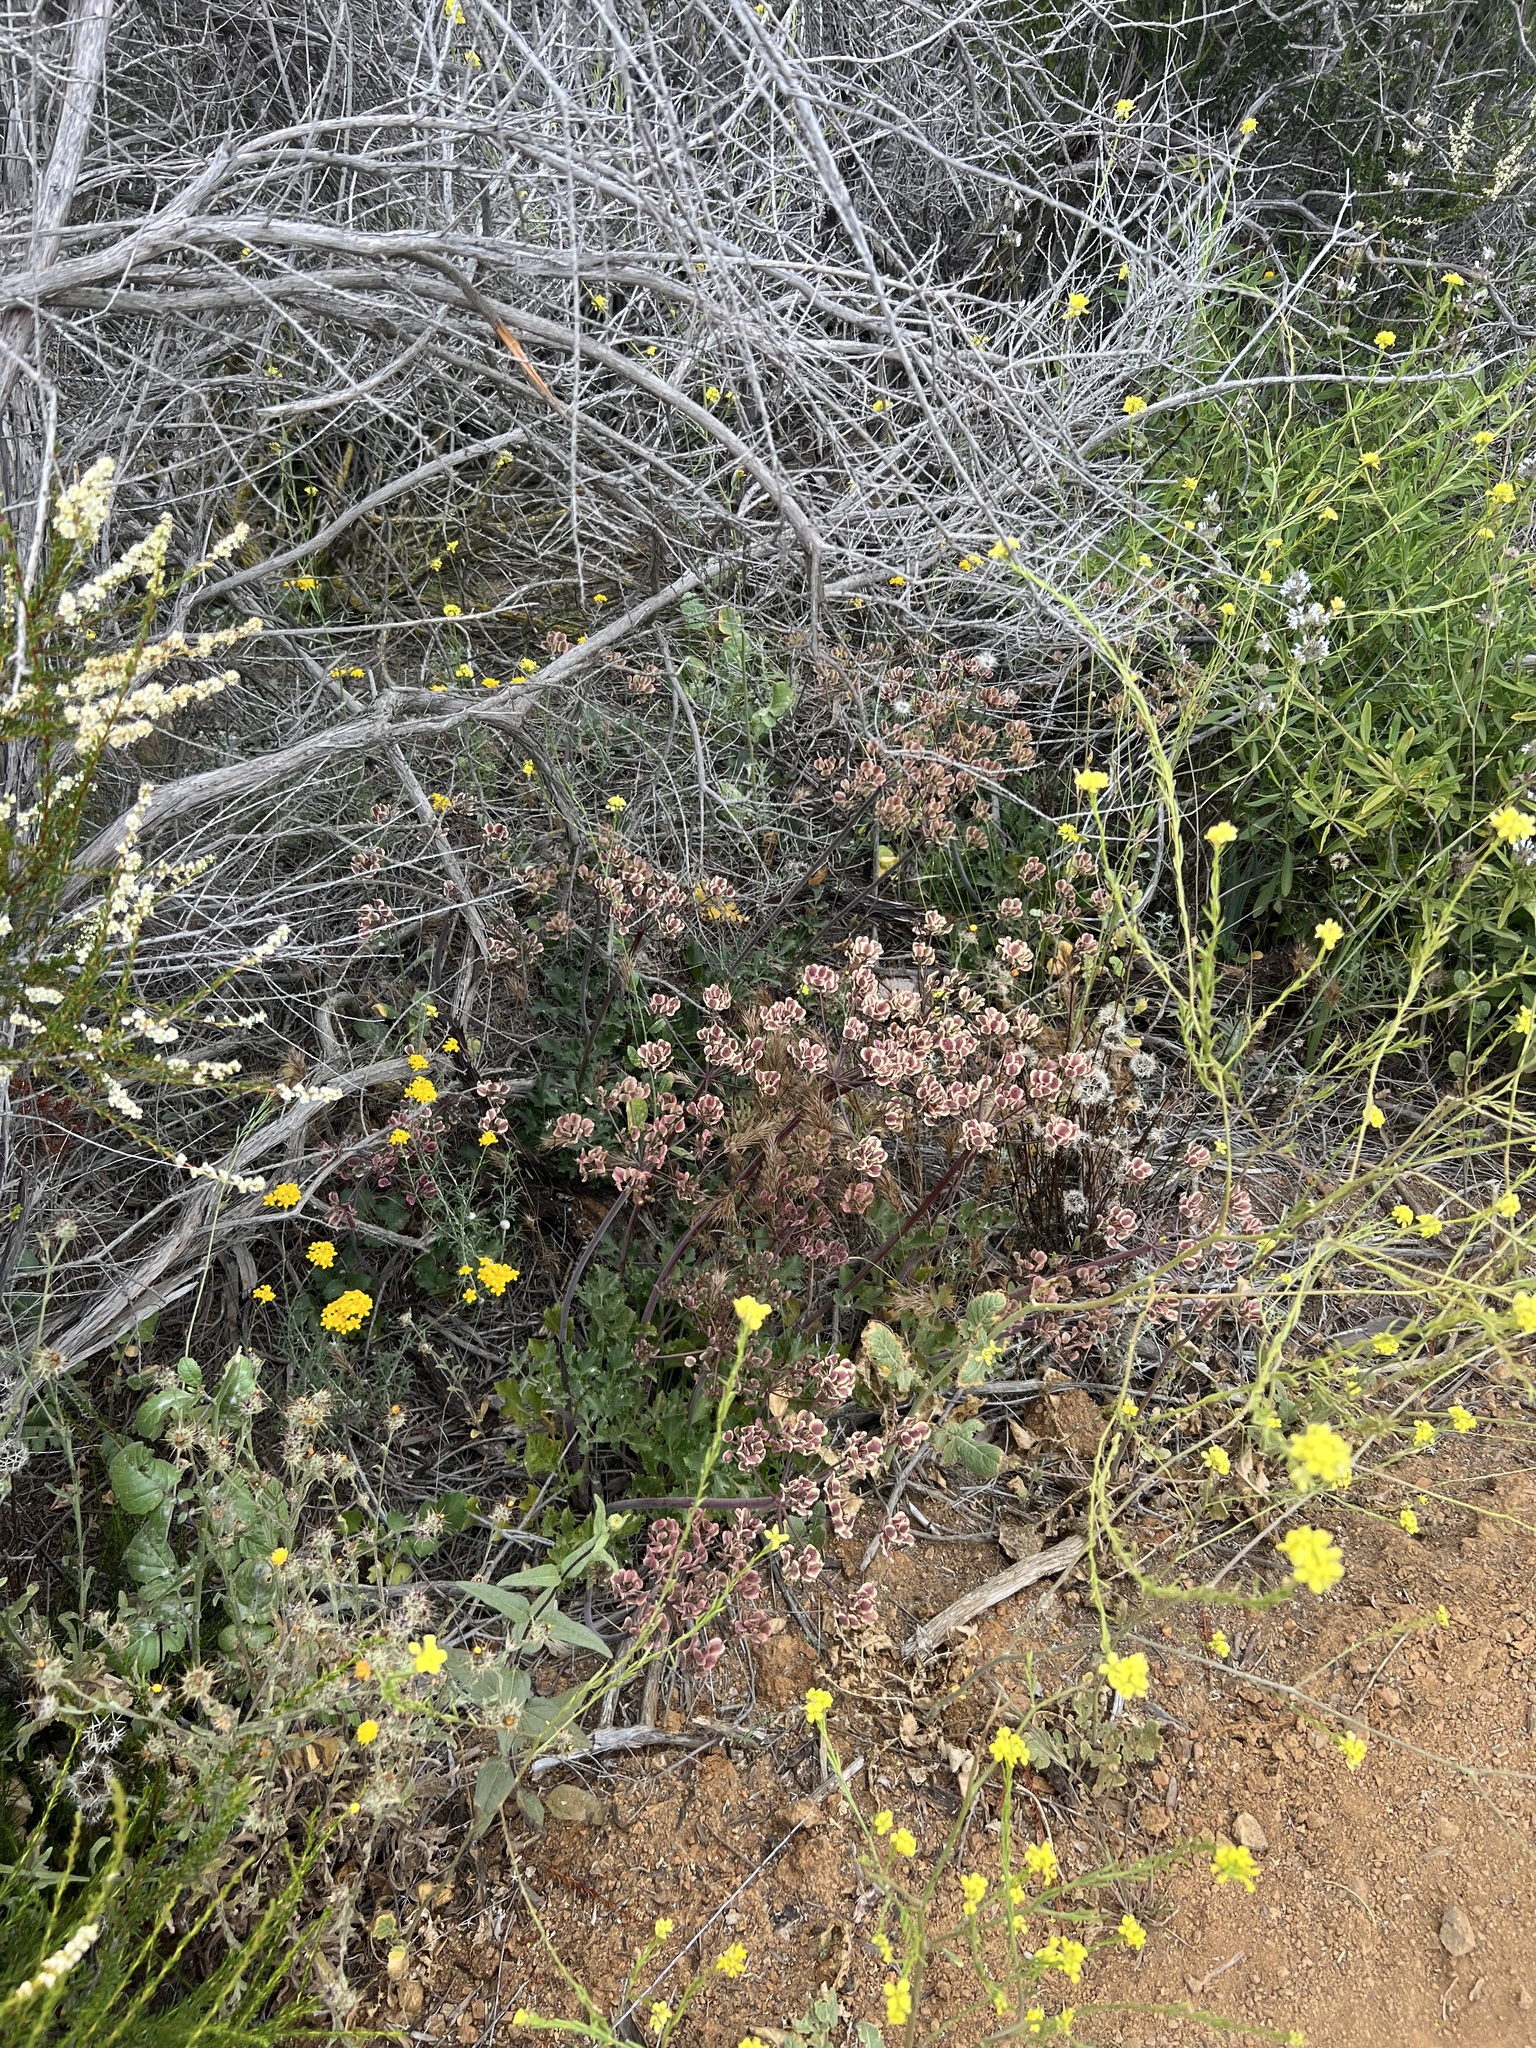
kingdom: Plantae
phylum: Tracheophyta
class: Magnoliopsida
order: Apiales
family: Apiaceae
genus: Lomatium
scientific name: Lomatium lucidum
